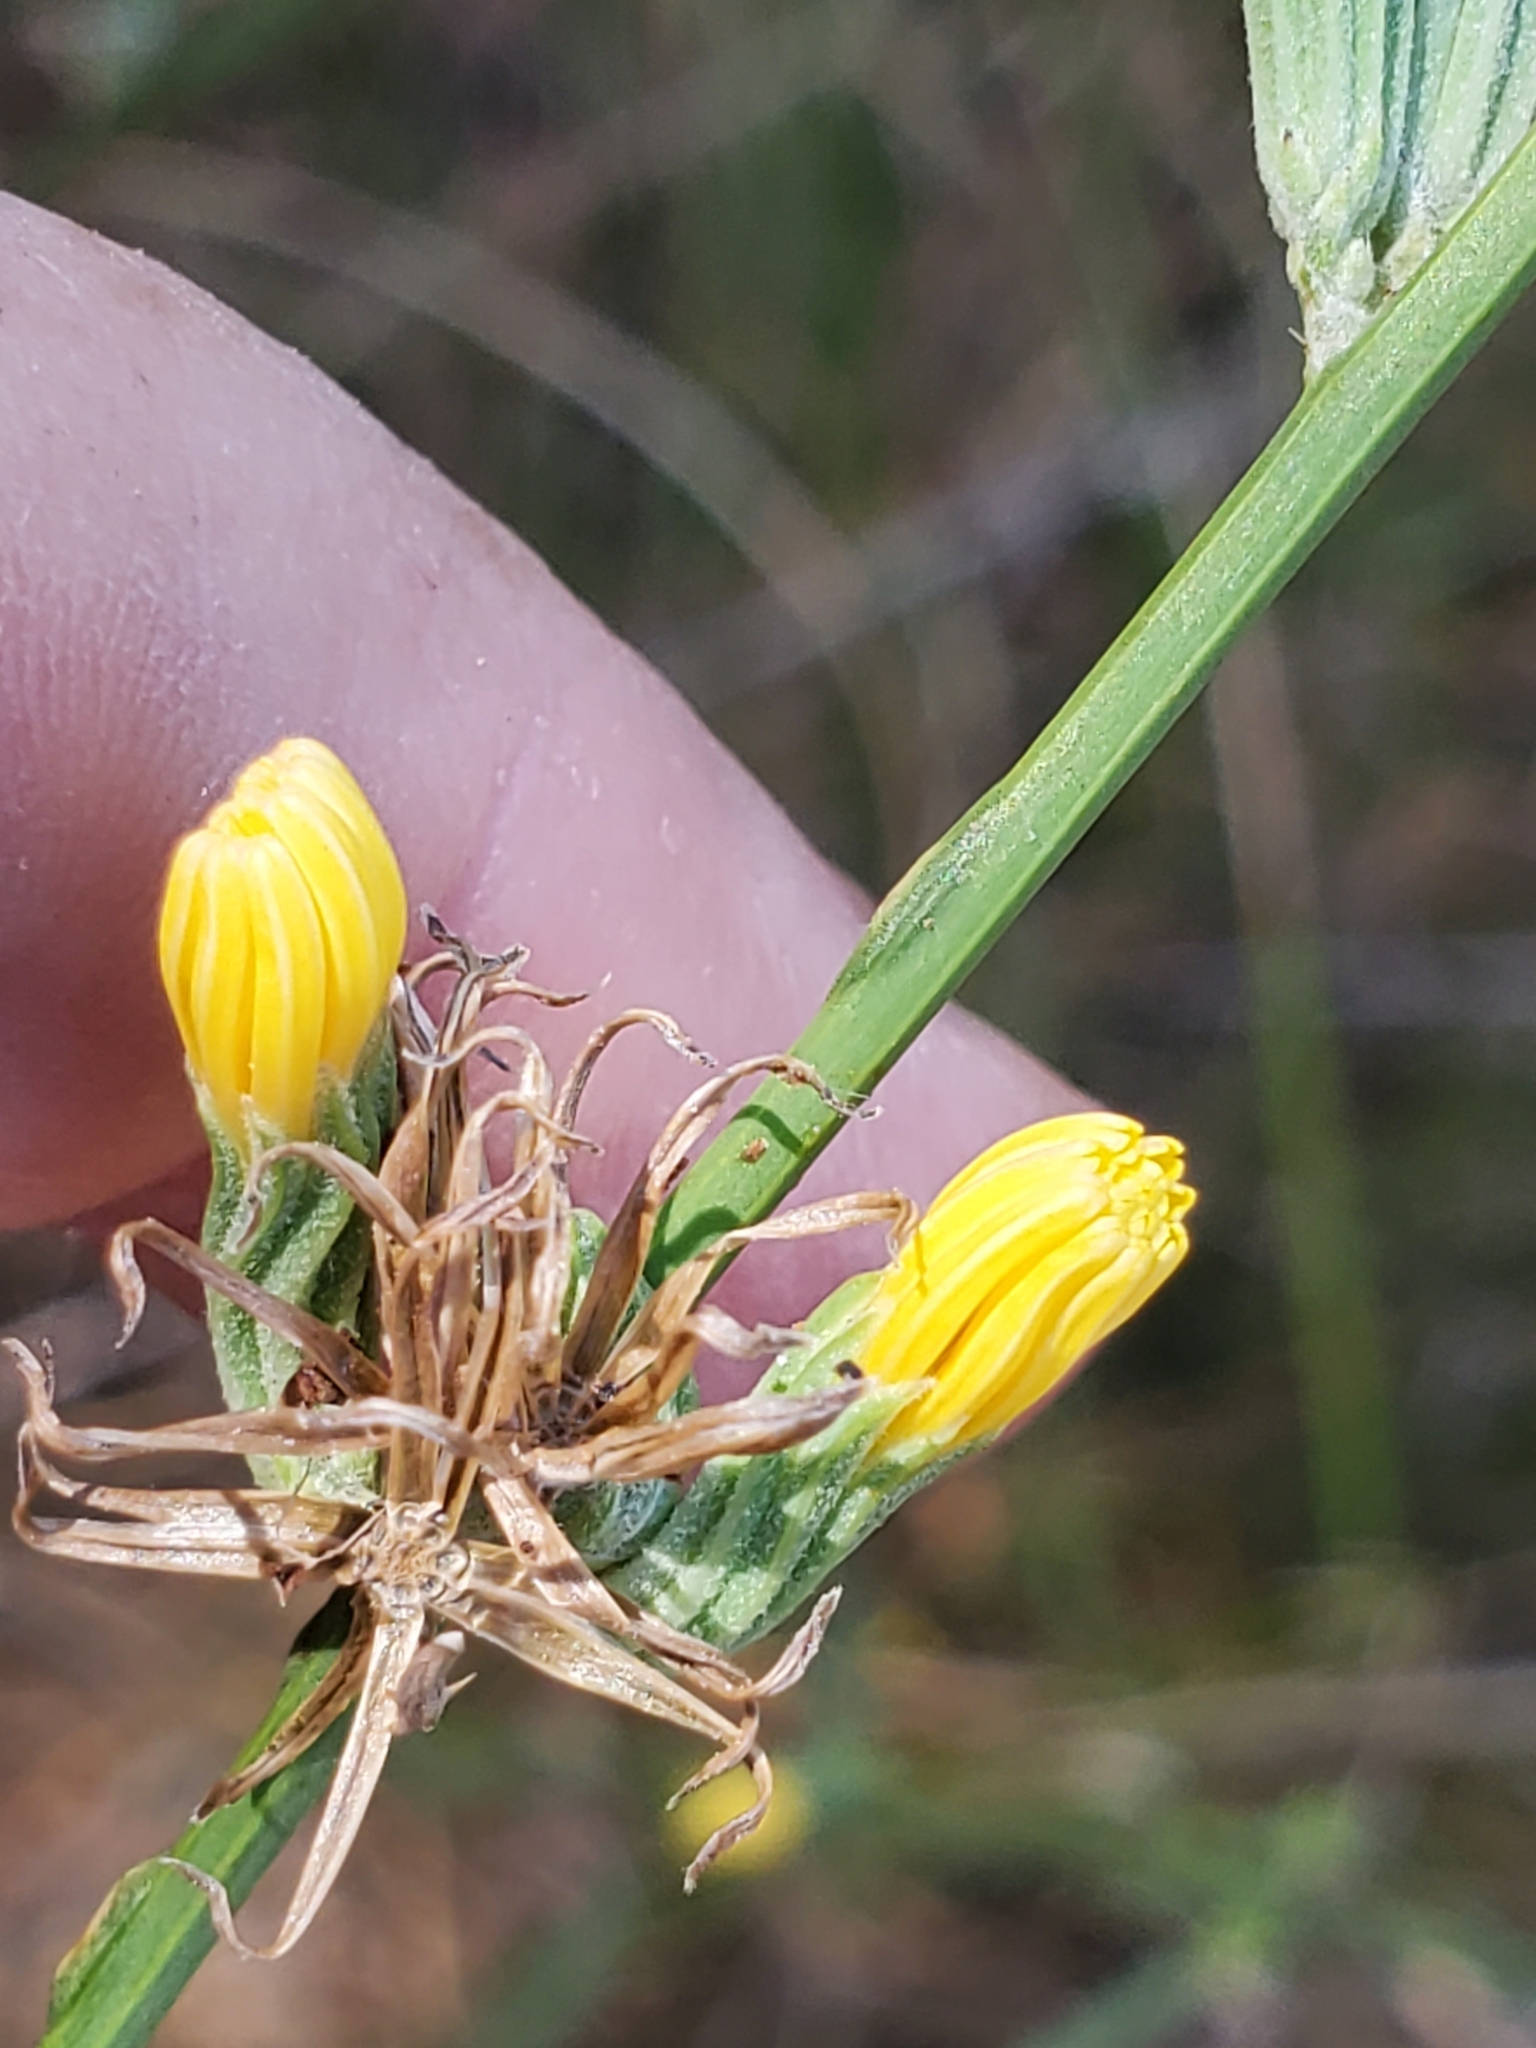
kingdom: Plantae
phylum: Tracheophyta
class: Magnoliopsida
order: Asterales
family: Asteraceae
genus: Chondrilla
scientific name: Chondrilla juncea
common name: Skeleton weed
